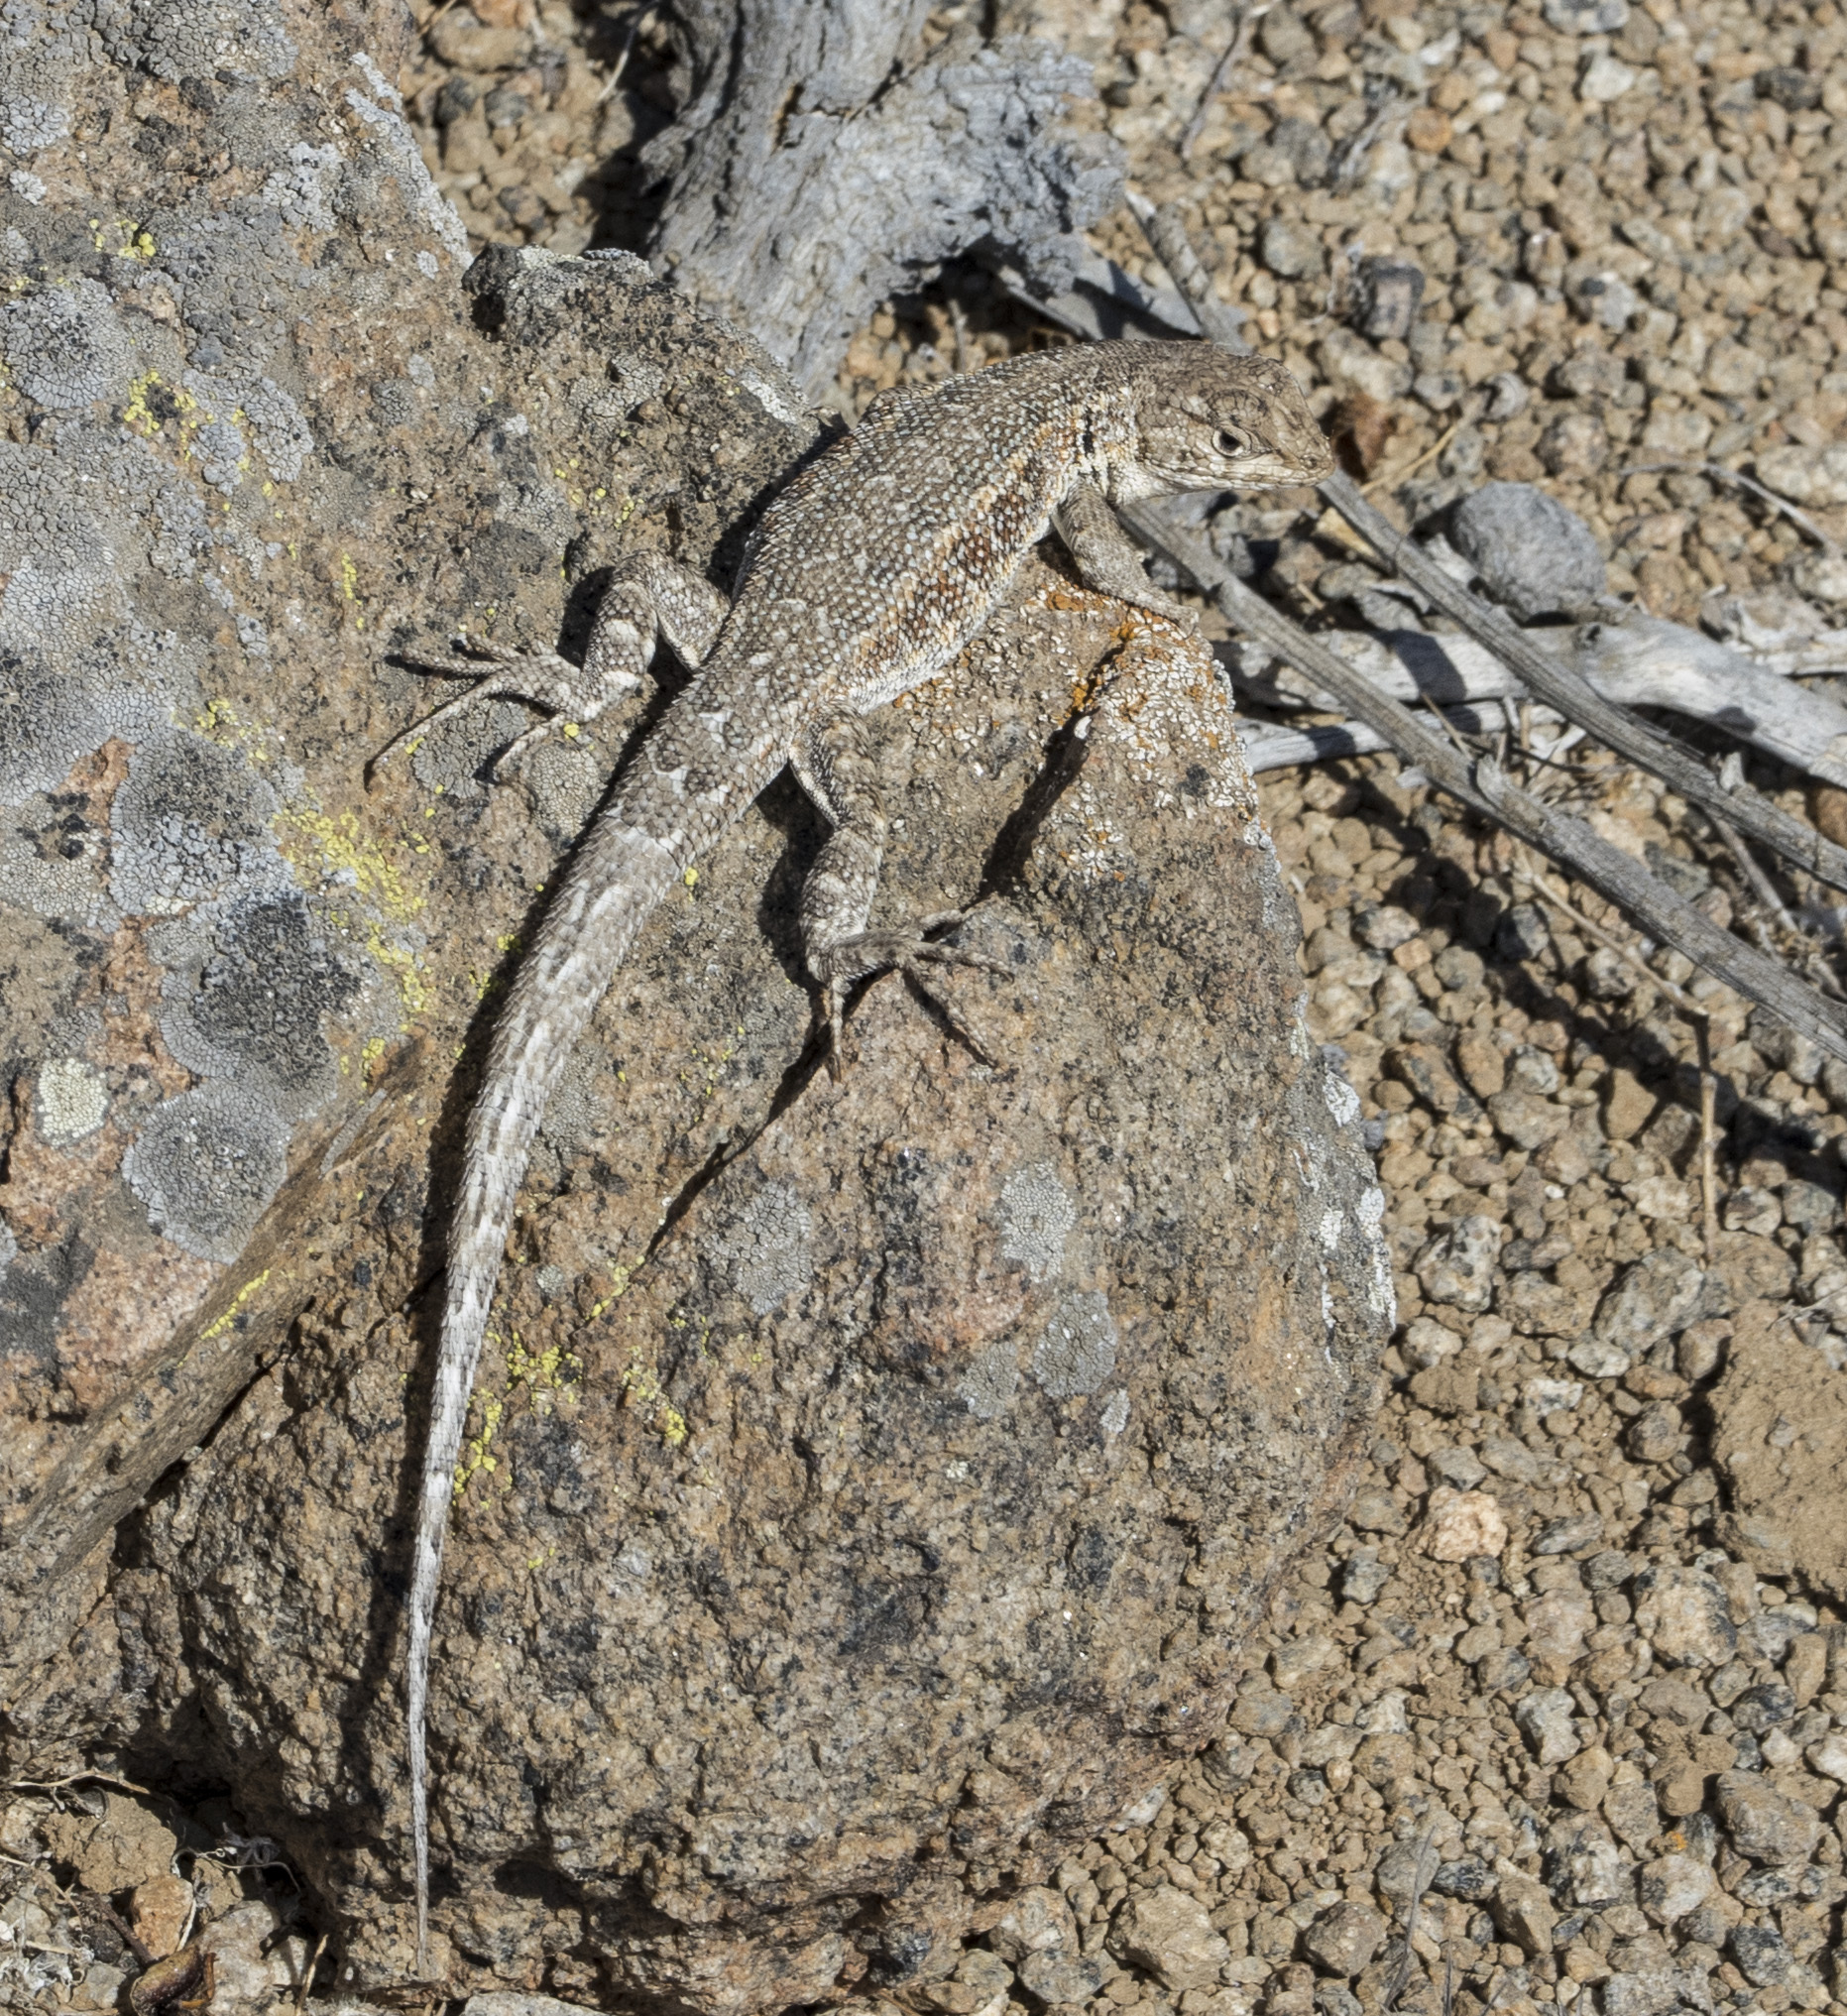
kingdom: Animalia
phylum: Chordata
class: Squamata
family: Liolaemidae
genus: Liolaemus
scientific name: Liolaemus atacamensis
